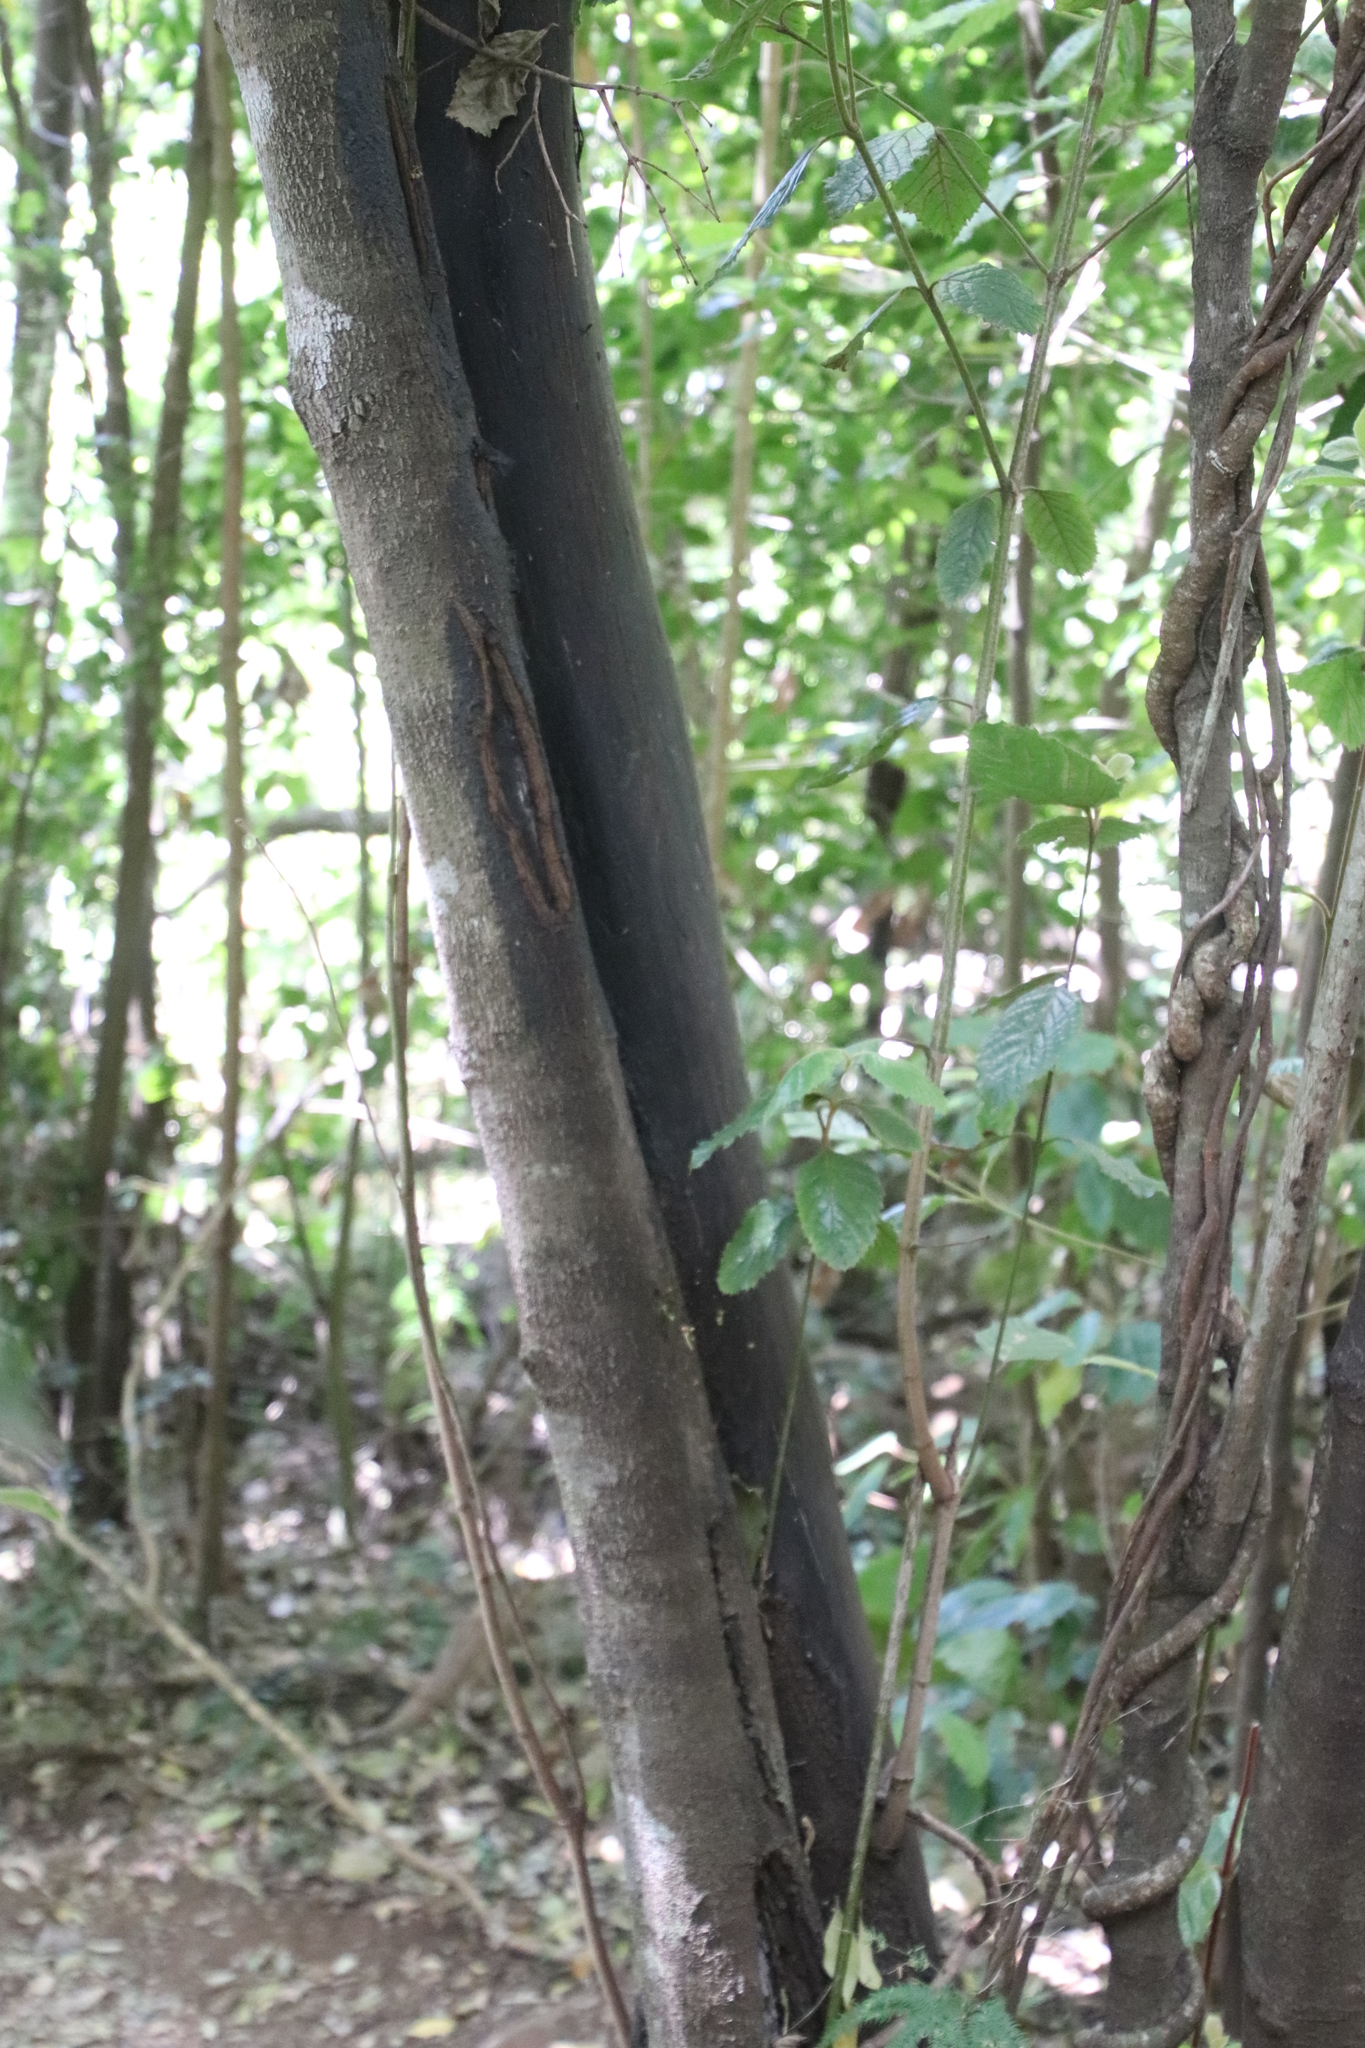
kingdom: Plantae
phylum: Tracheophyta
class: Magnoliopsida
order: Cornales
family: Curtisiaceae
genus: Curtisia
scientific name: Curtisia dentata
